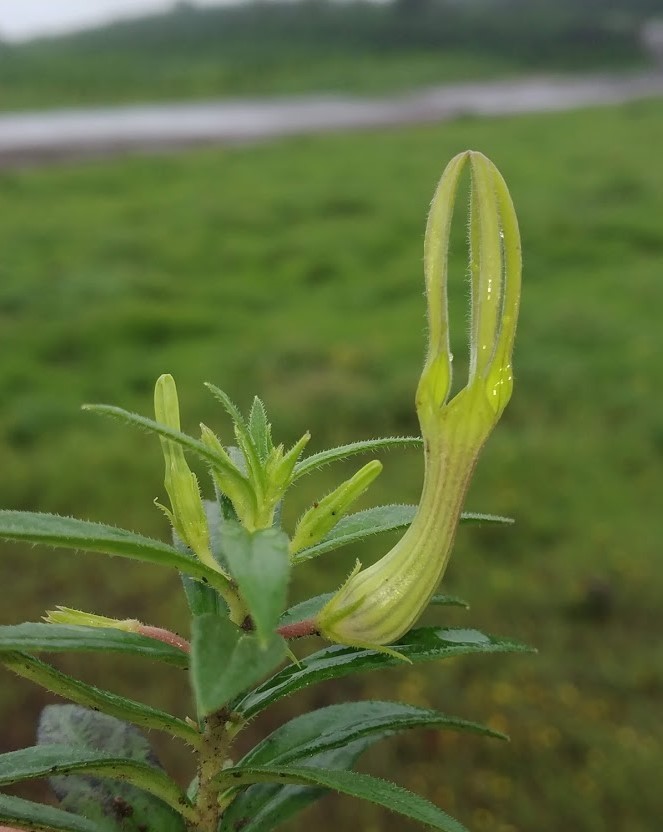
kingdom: Plantae
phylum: Tracheophyta
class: Magnoliopsida
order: Gentianales
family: Apocynaceae
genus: Ceropegia
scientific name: Ceropegia attenuata
